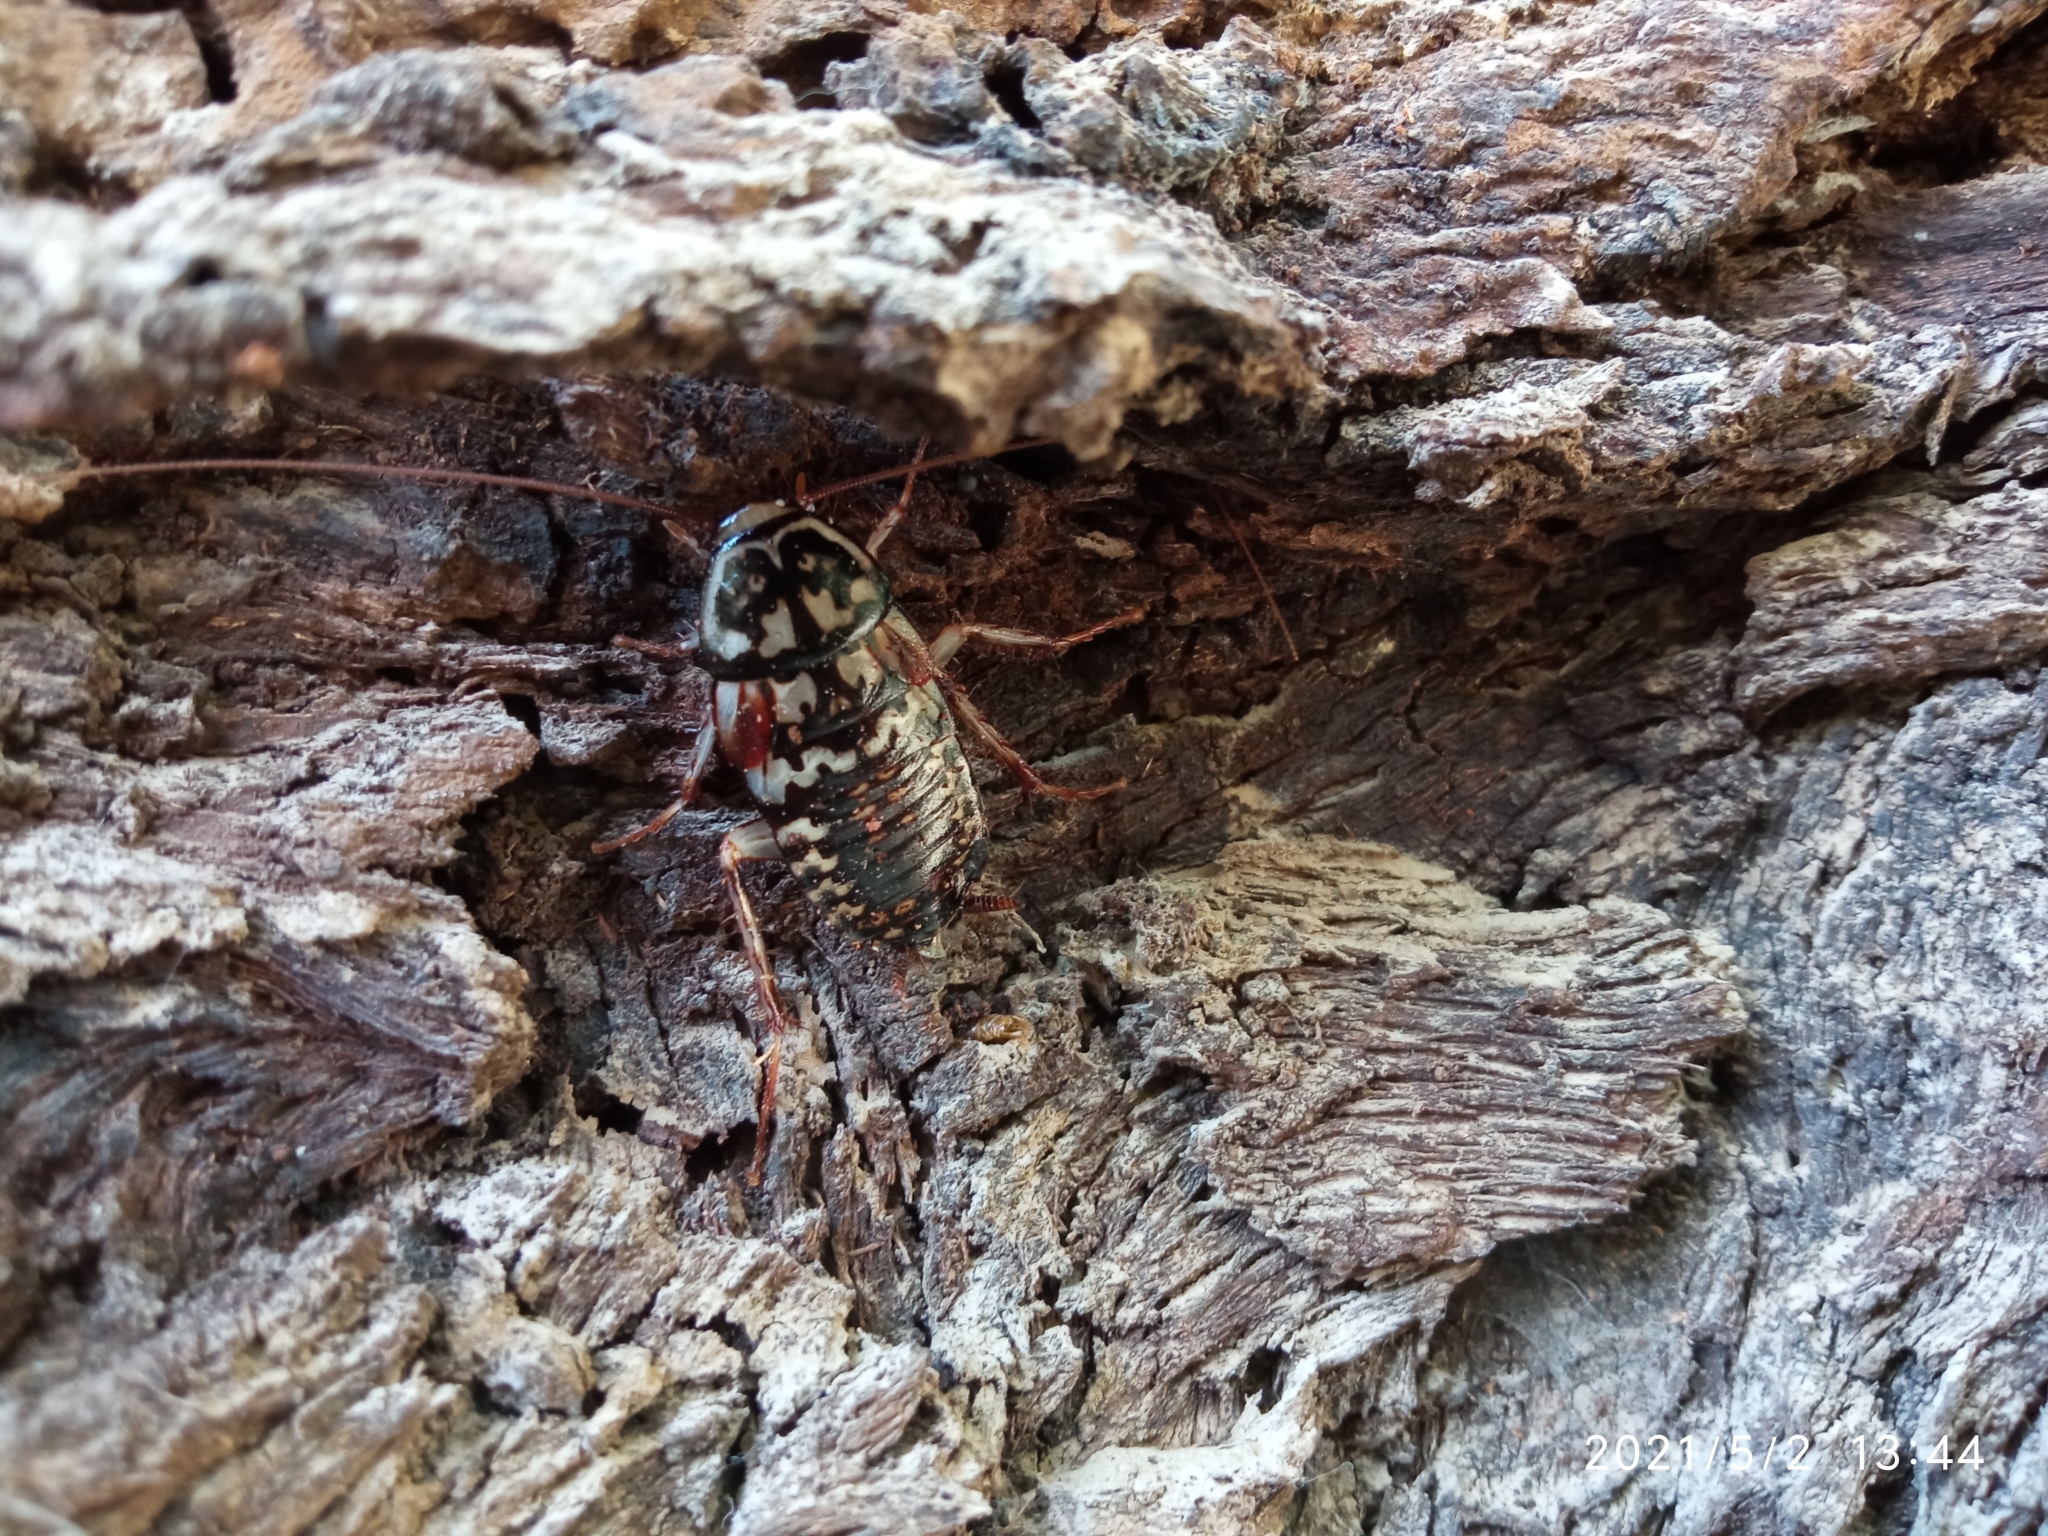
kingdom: Animalia
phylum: Arthropoda
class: Insecta
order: Blattodea
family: Blattidae
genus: Neostylopyga
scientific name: Neostylopyga rhombifolia
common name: Harlequin cockroach
